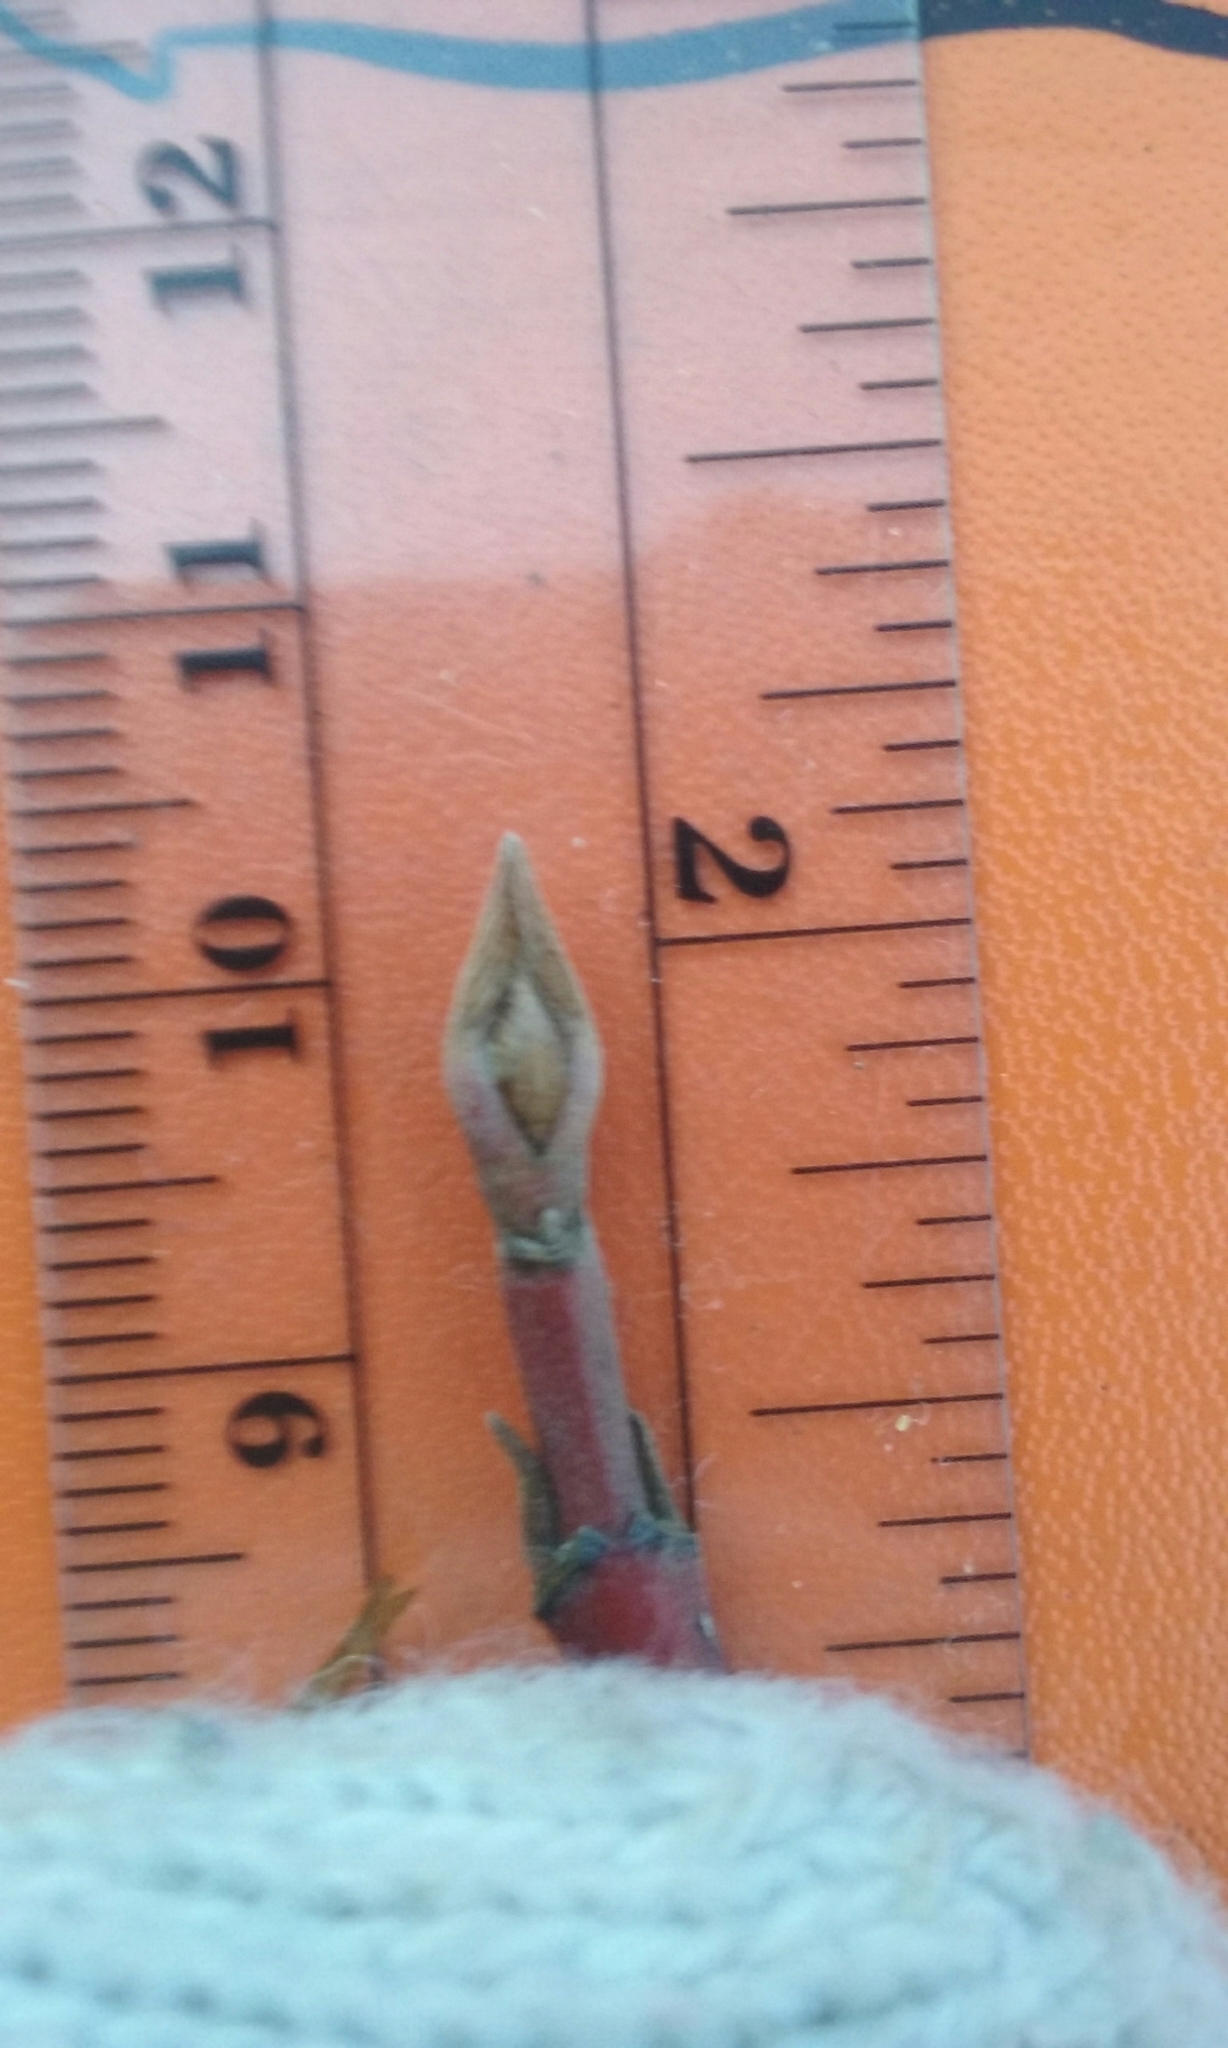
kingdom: Plantae
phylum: Tracheophyta
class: Magnoliopsida
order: Cornales
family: Cornaceae
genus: Cornus
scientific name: Cornus sericea
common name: Red-osier dogwood
